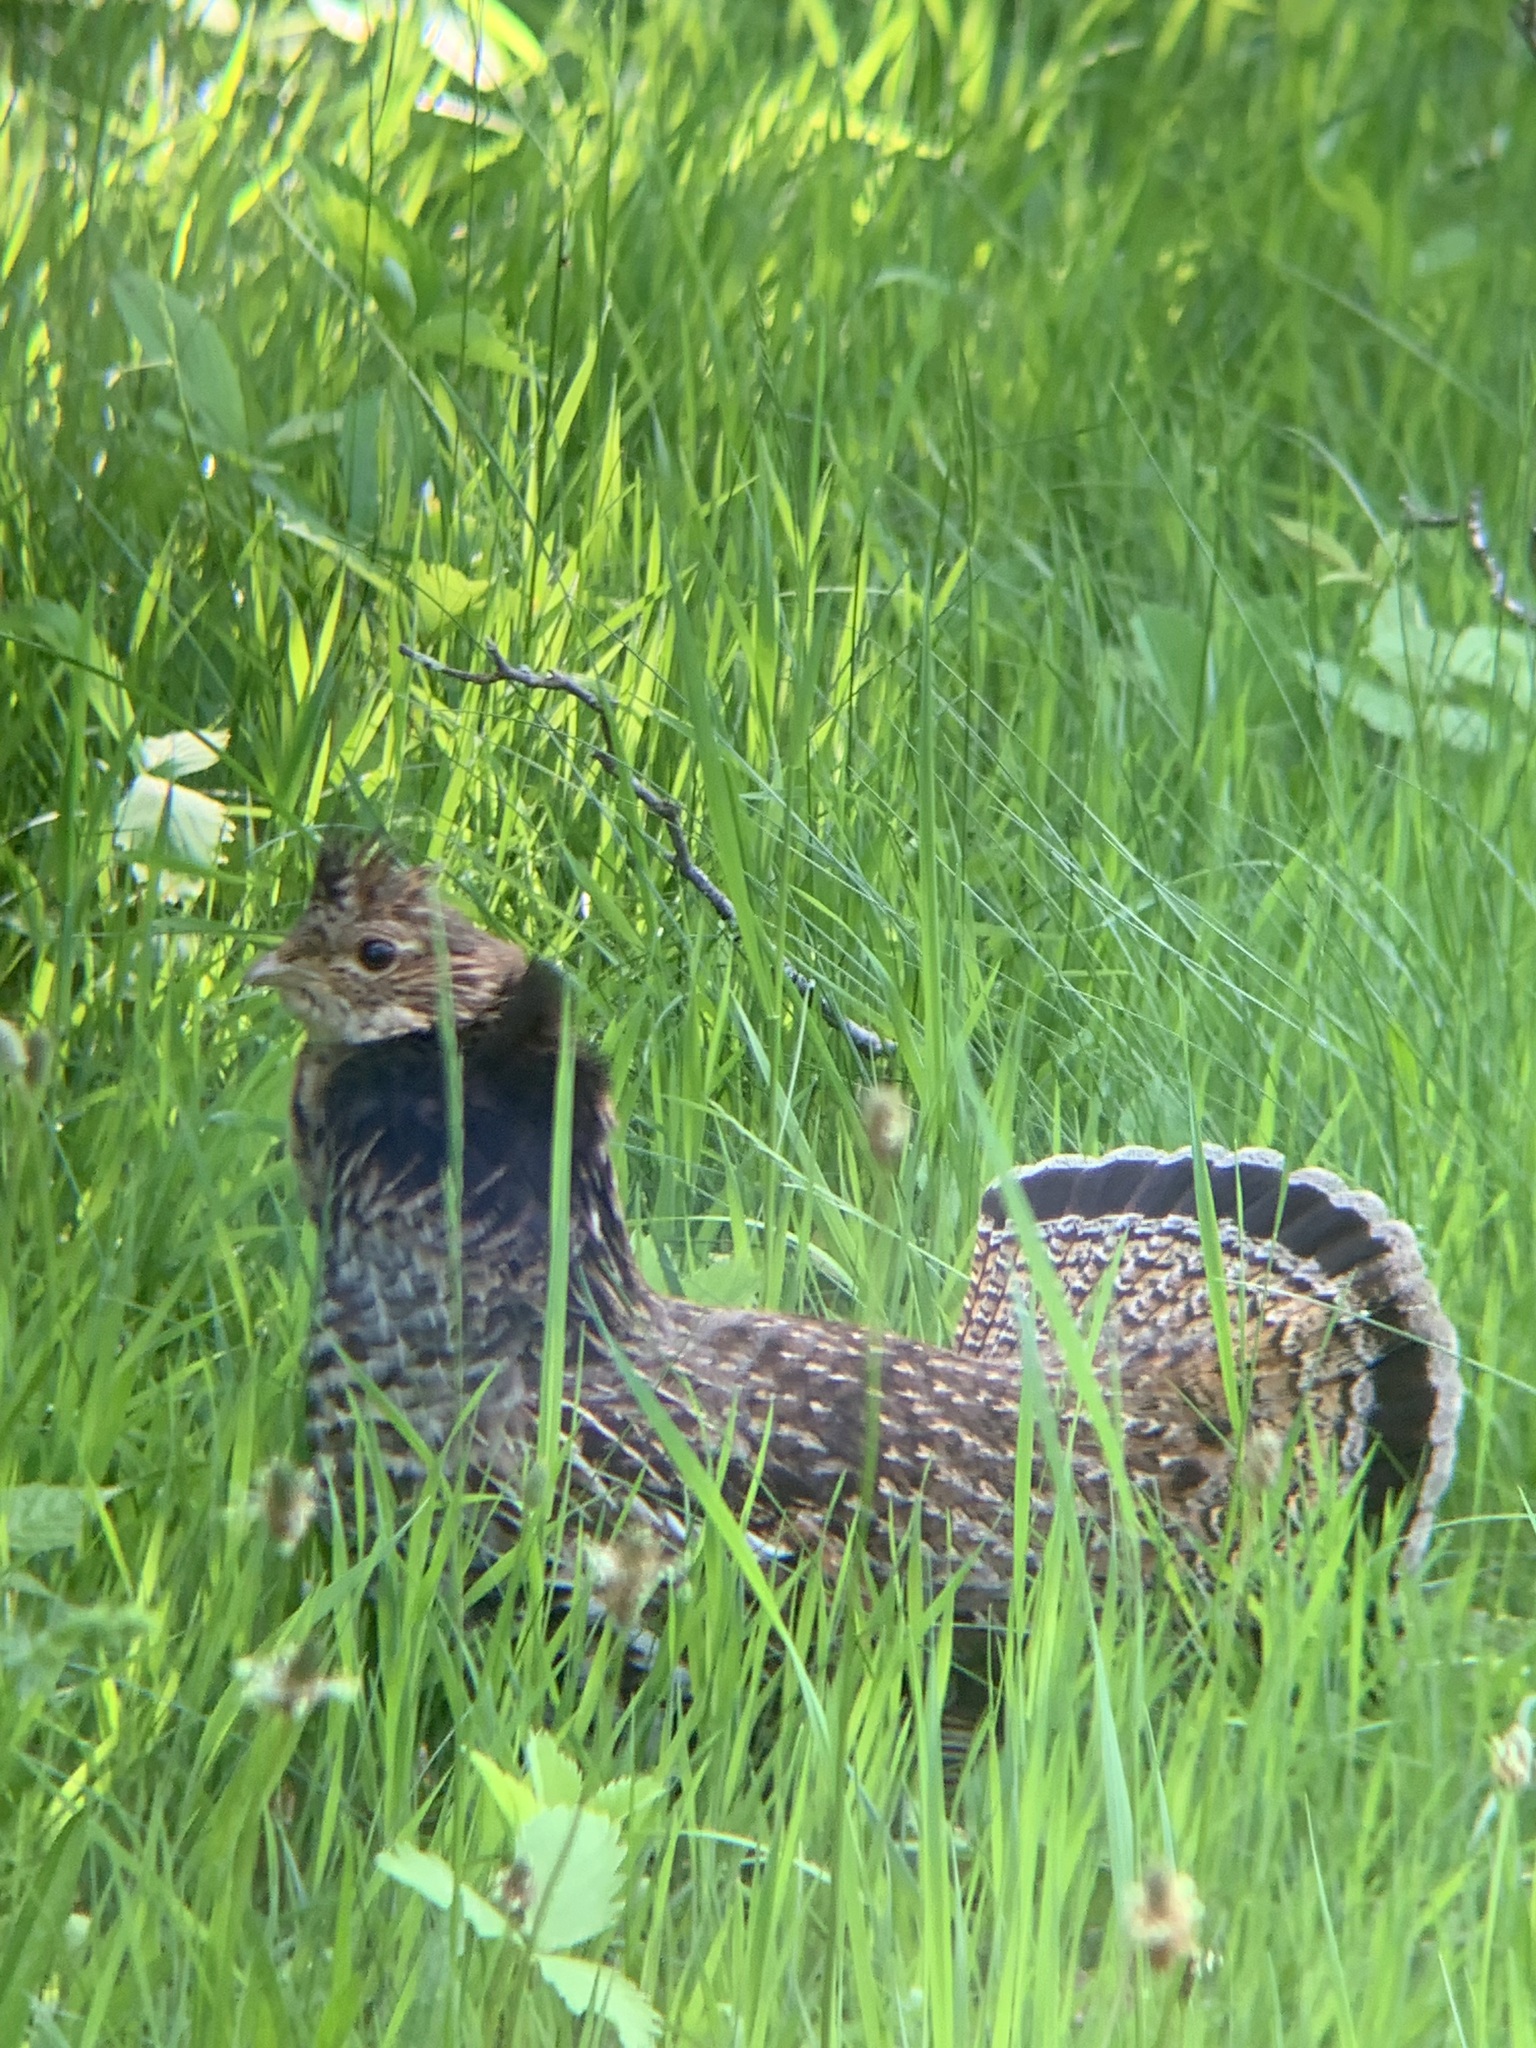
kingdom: Animalia
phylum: Chordata
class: Aves
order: Galliformes
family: Phasianidae
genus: Bonasa
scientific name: Bonasa umbellus
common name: Ruffed grouse
